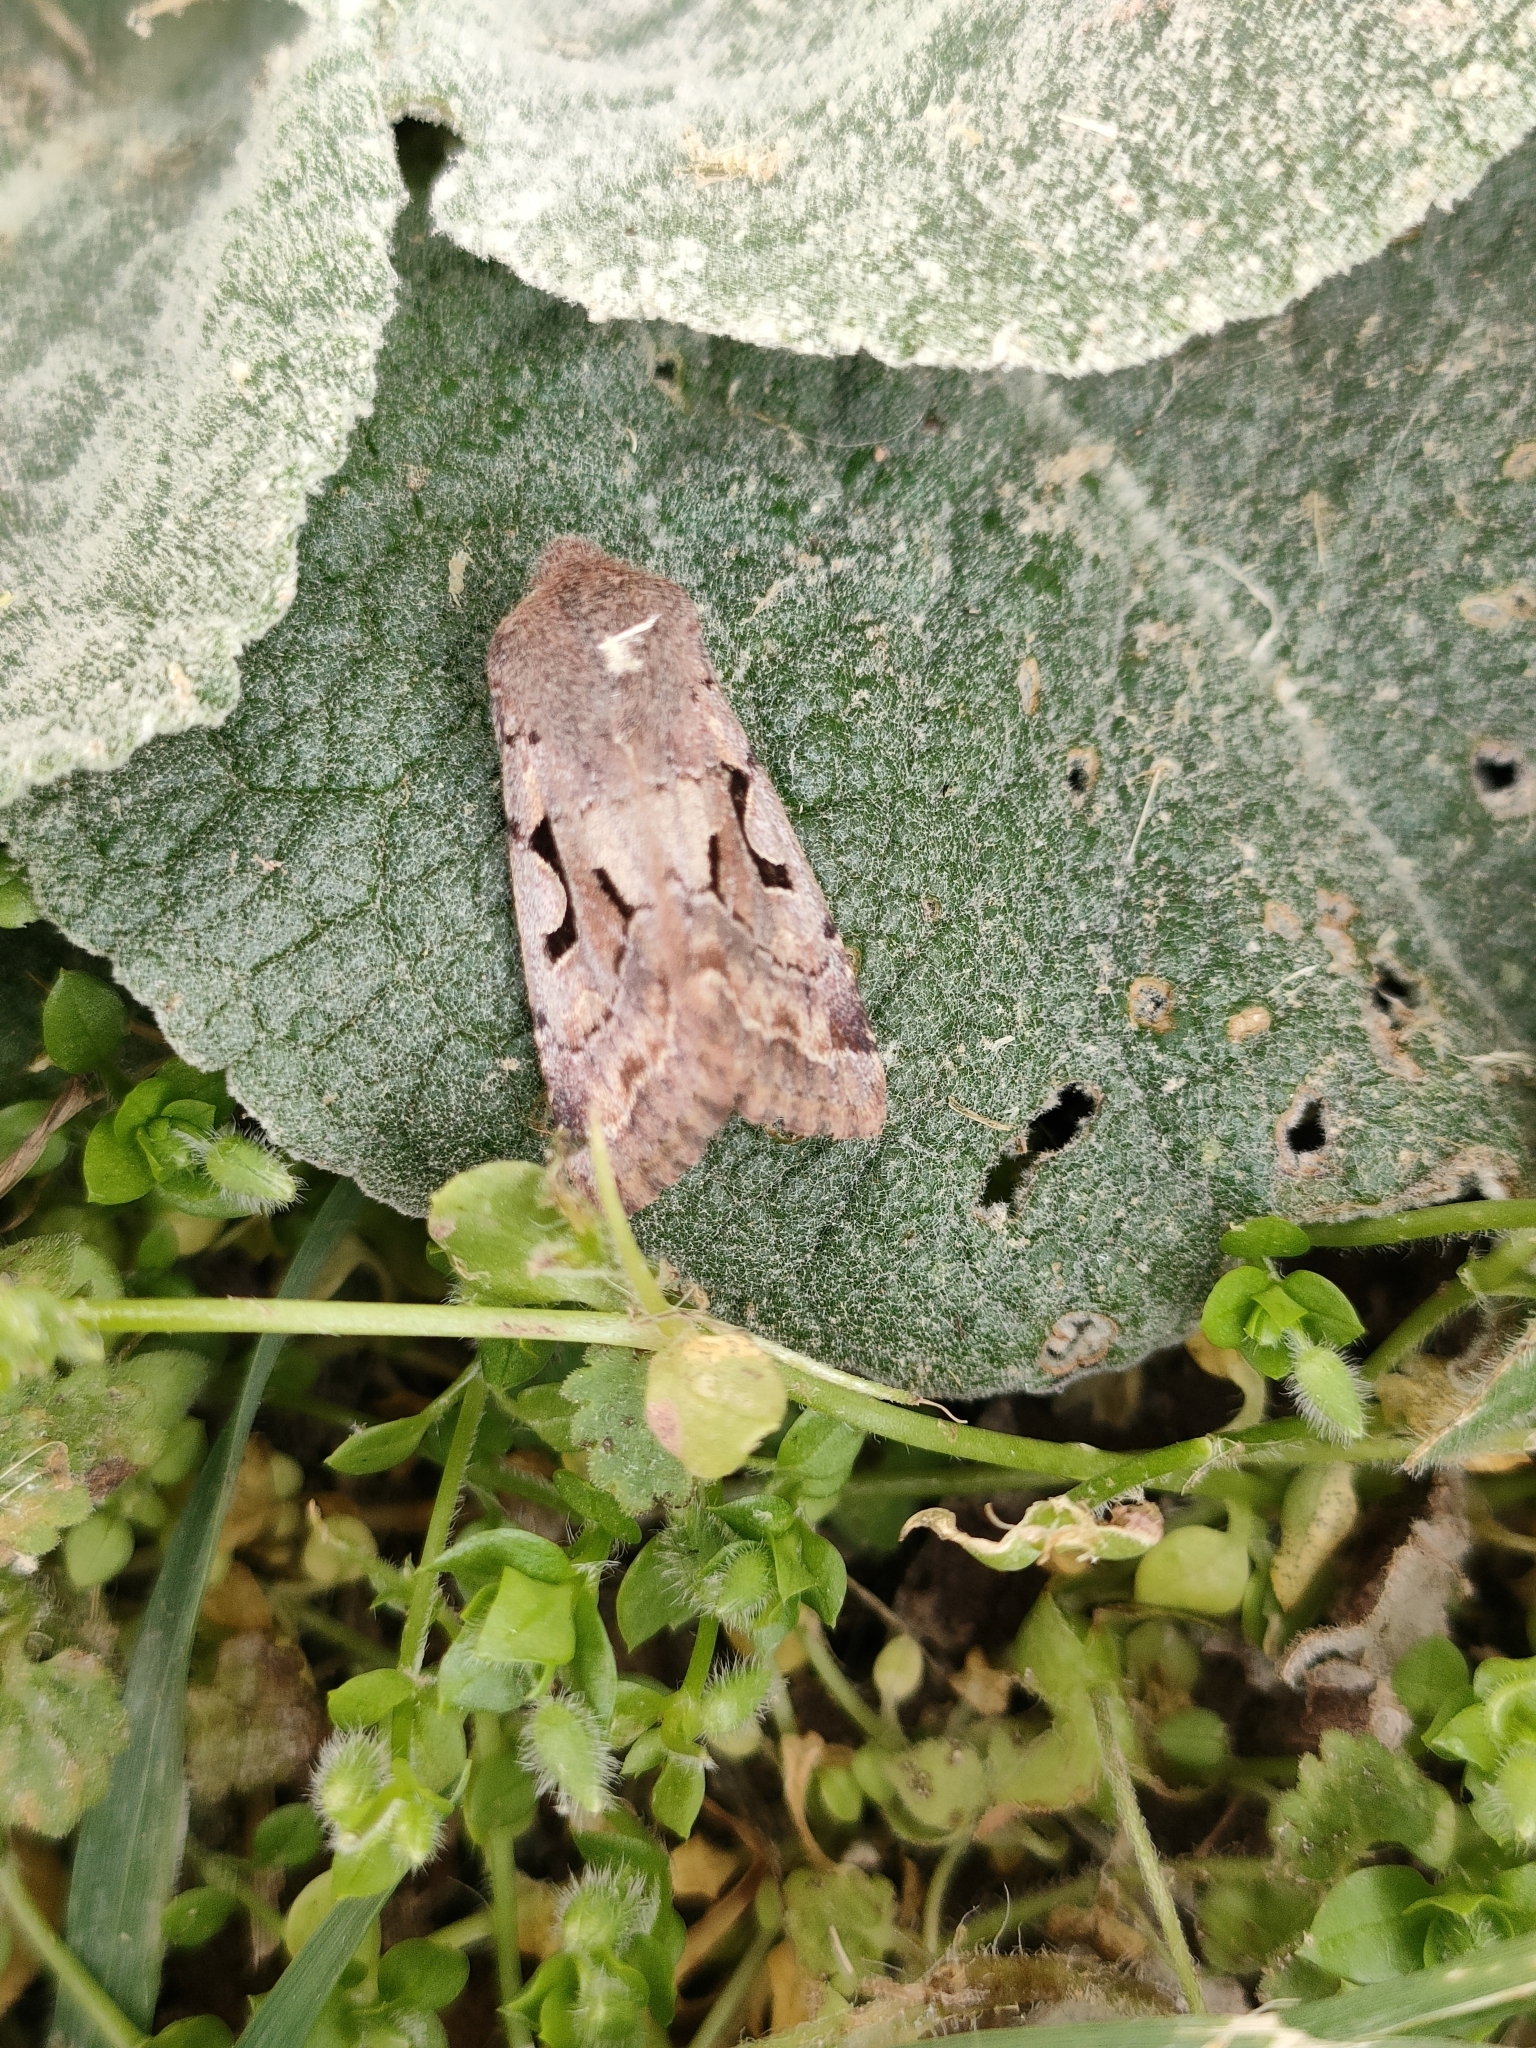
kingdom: Animalia
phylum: Arthropoda
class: Insecta
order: Lepidoptera
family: Noctuidae
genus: Orthosia
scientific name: Orthosia gothica
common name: Hebrew character
